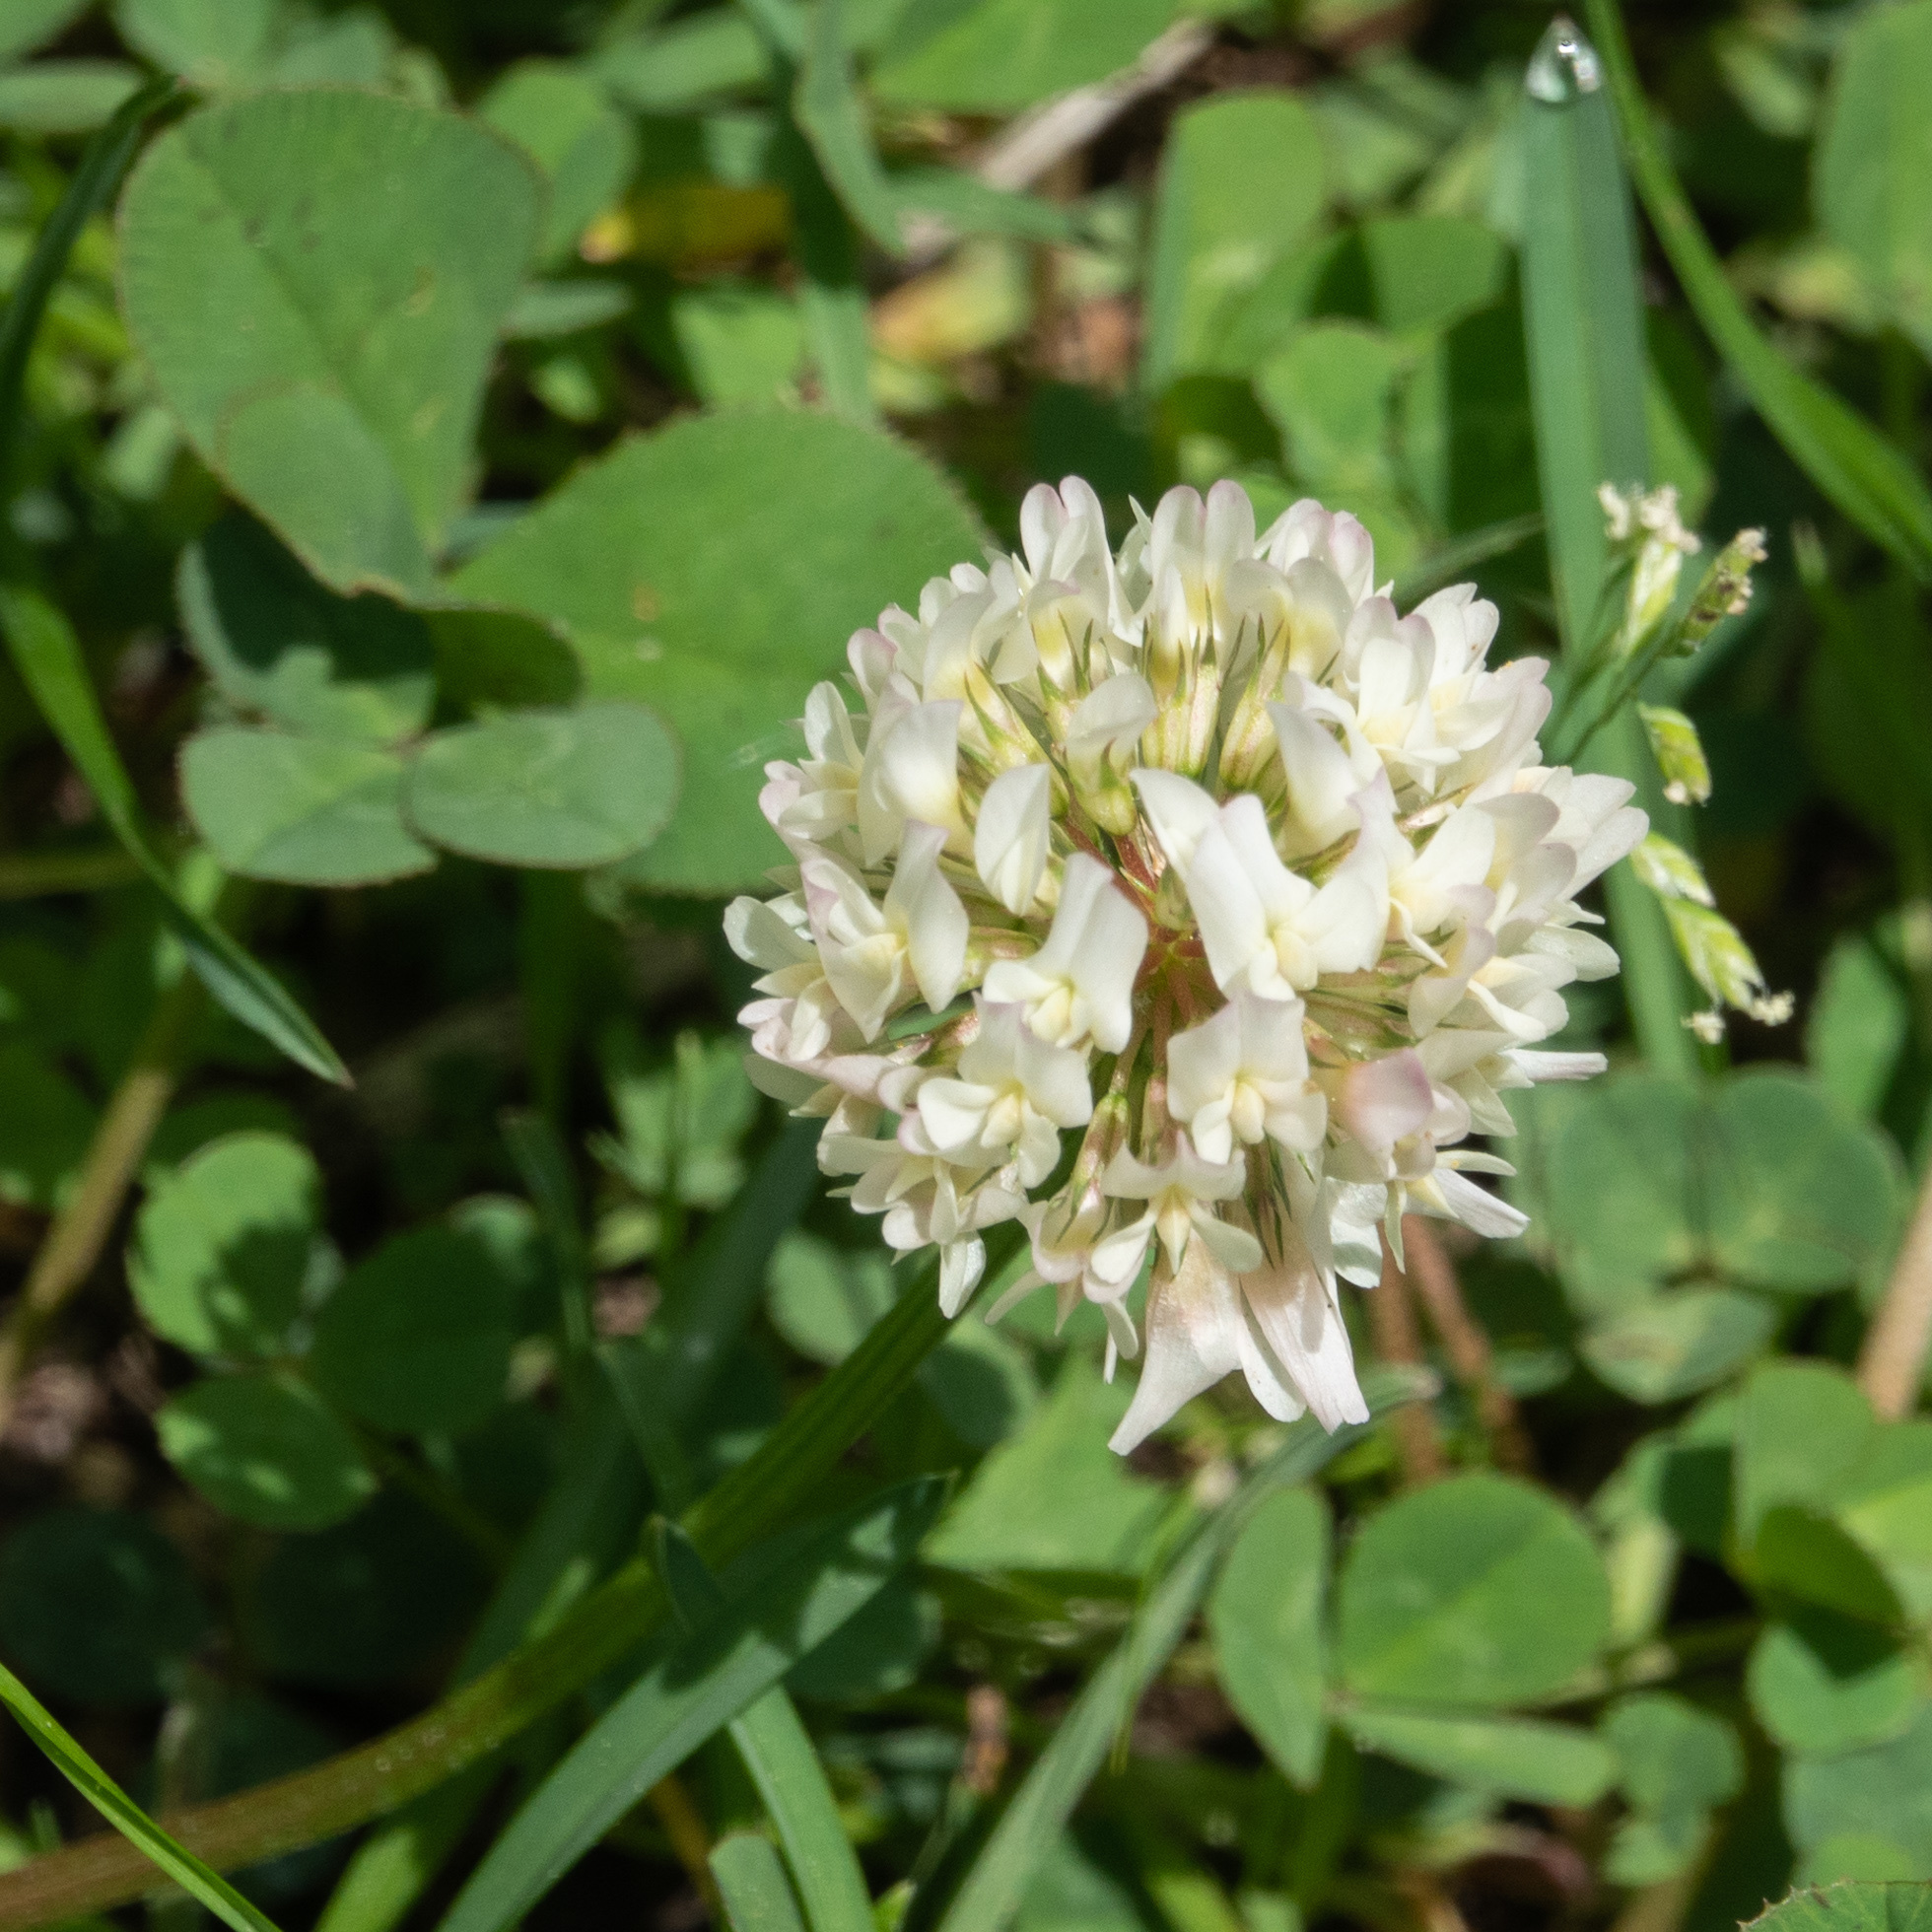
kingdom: Plantae
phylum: Tracheophyta
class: Magnoliopsida
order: Fabales
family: Fabaceae
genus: Trifolium
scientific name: Trifolium repens
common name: White clover
